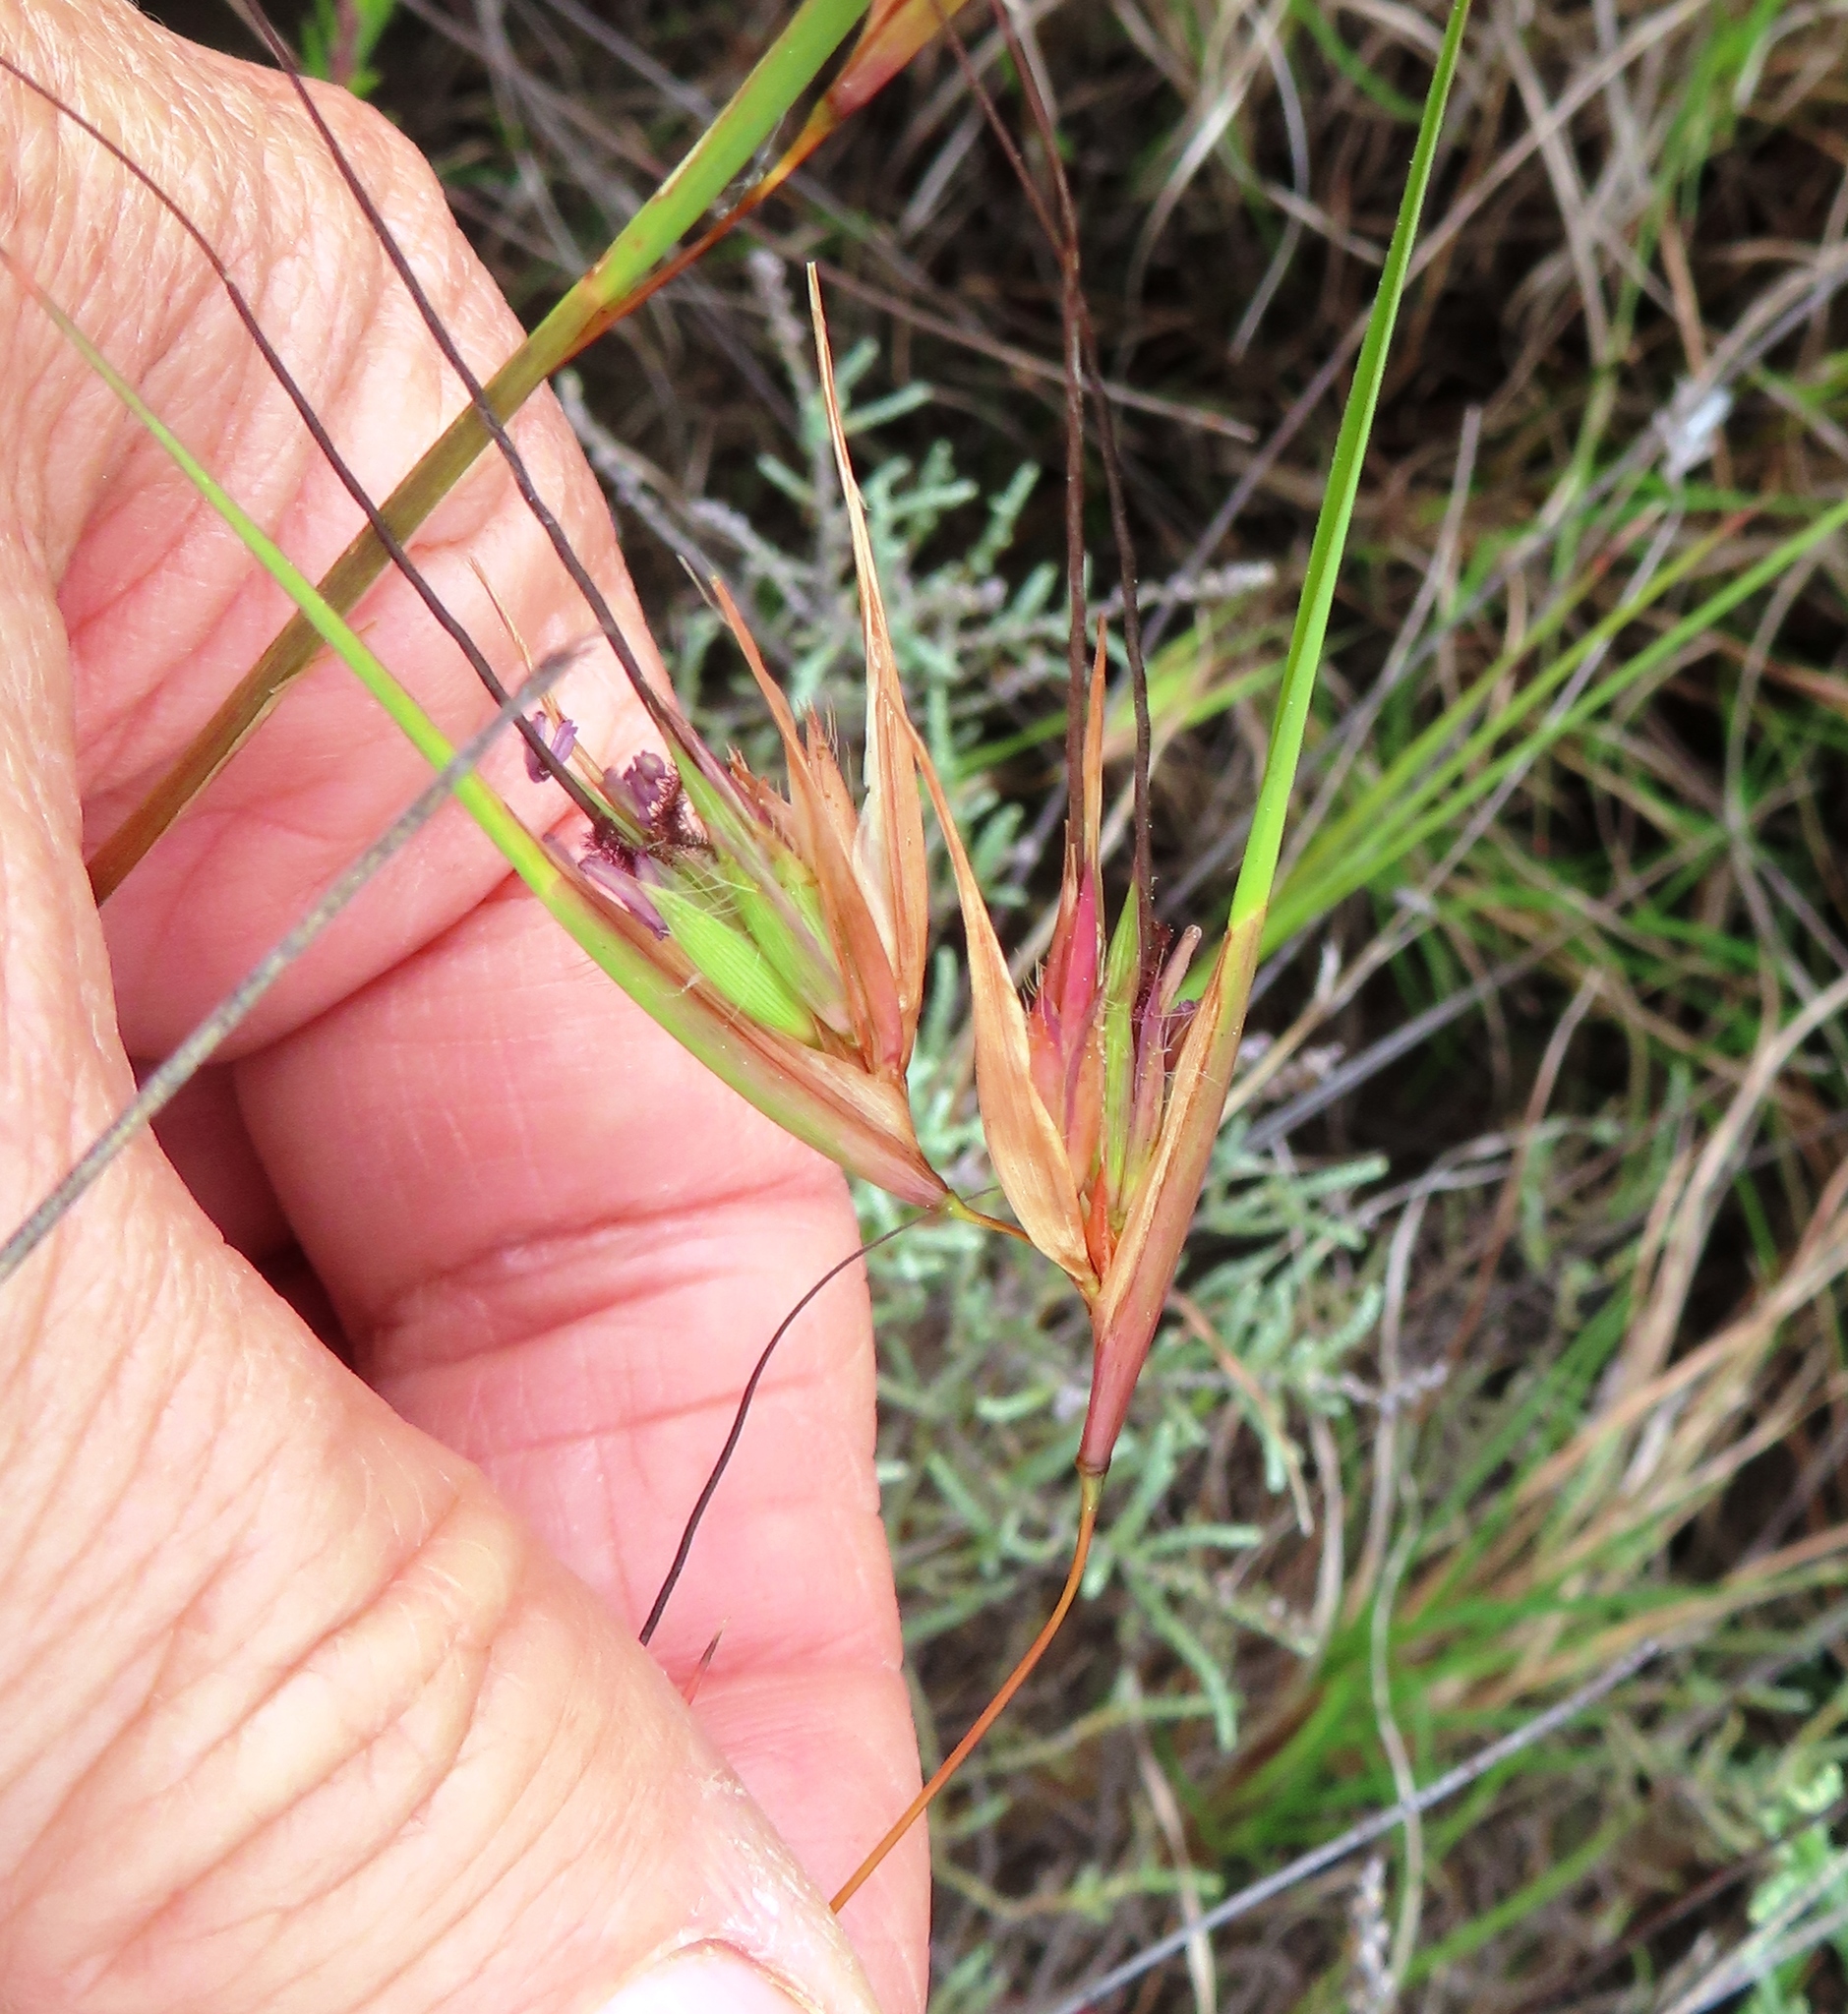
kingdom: Plantae
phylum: Tracheophyta
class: Liliopsida
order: Poales
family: Poaceae
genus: Themeda
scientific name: Themeda triandra
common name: Kangaroo grass
